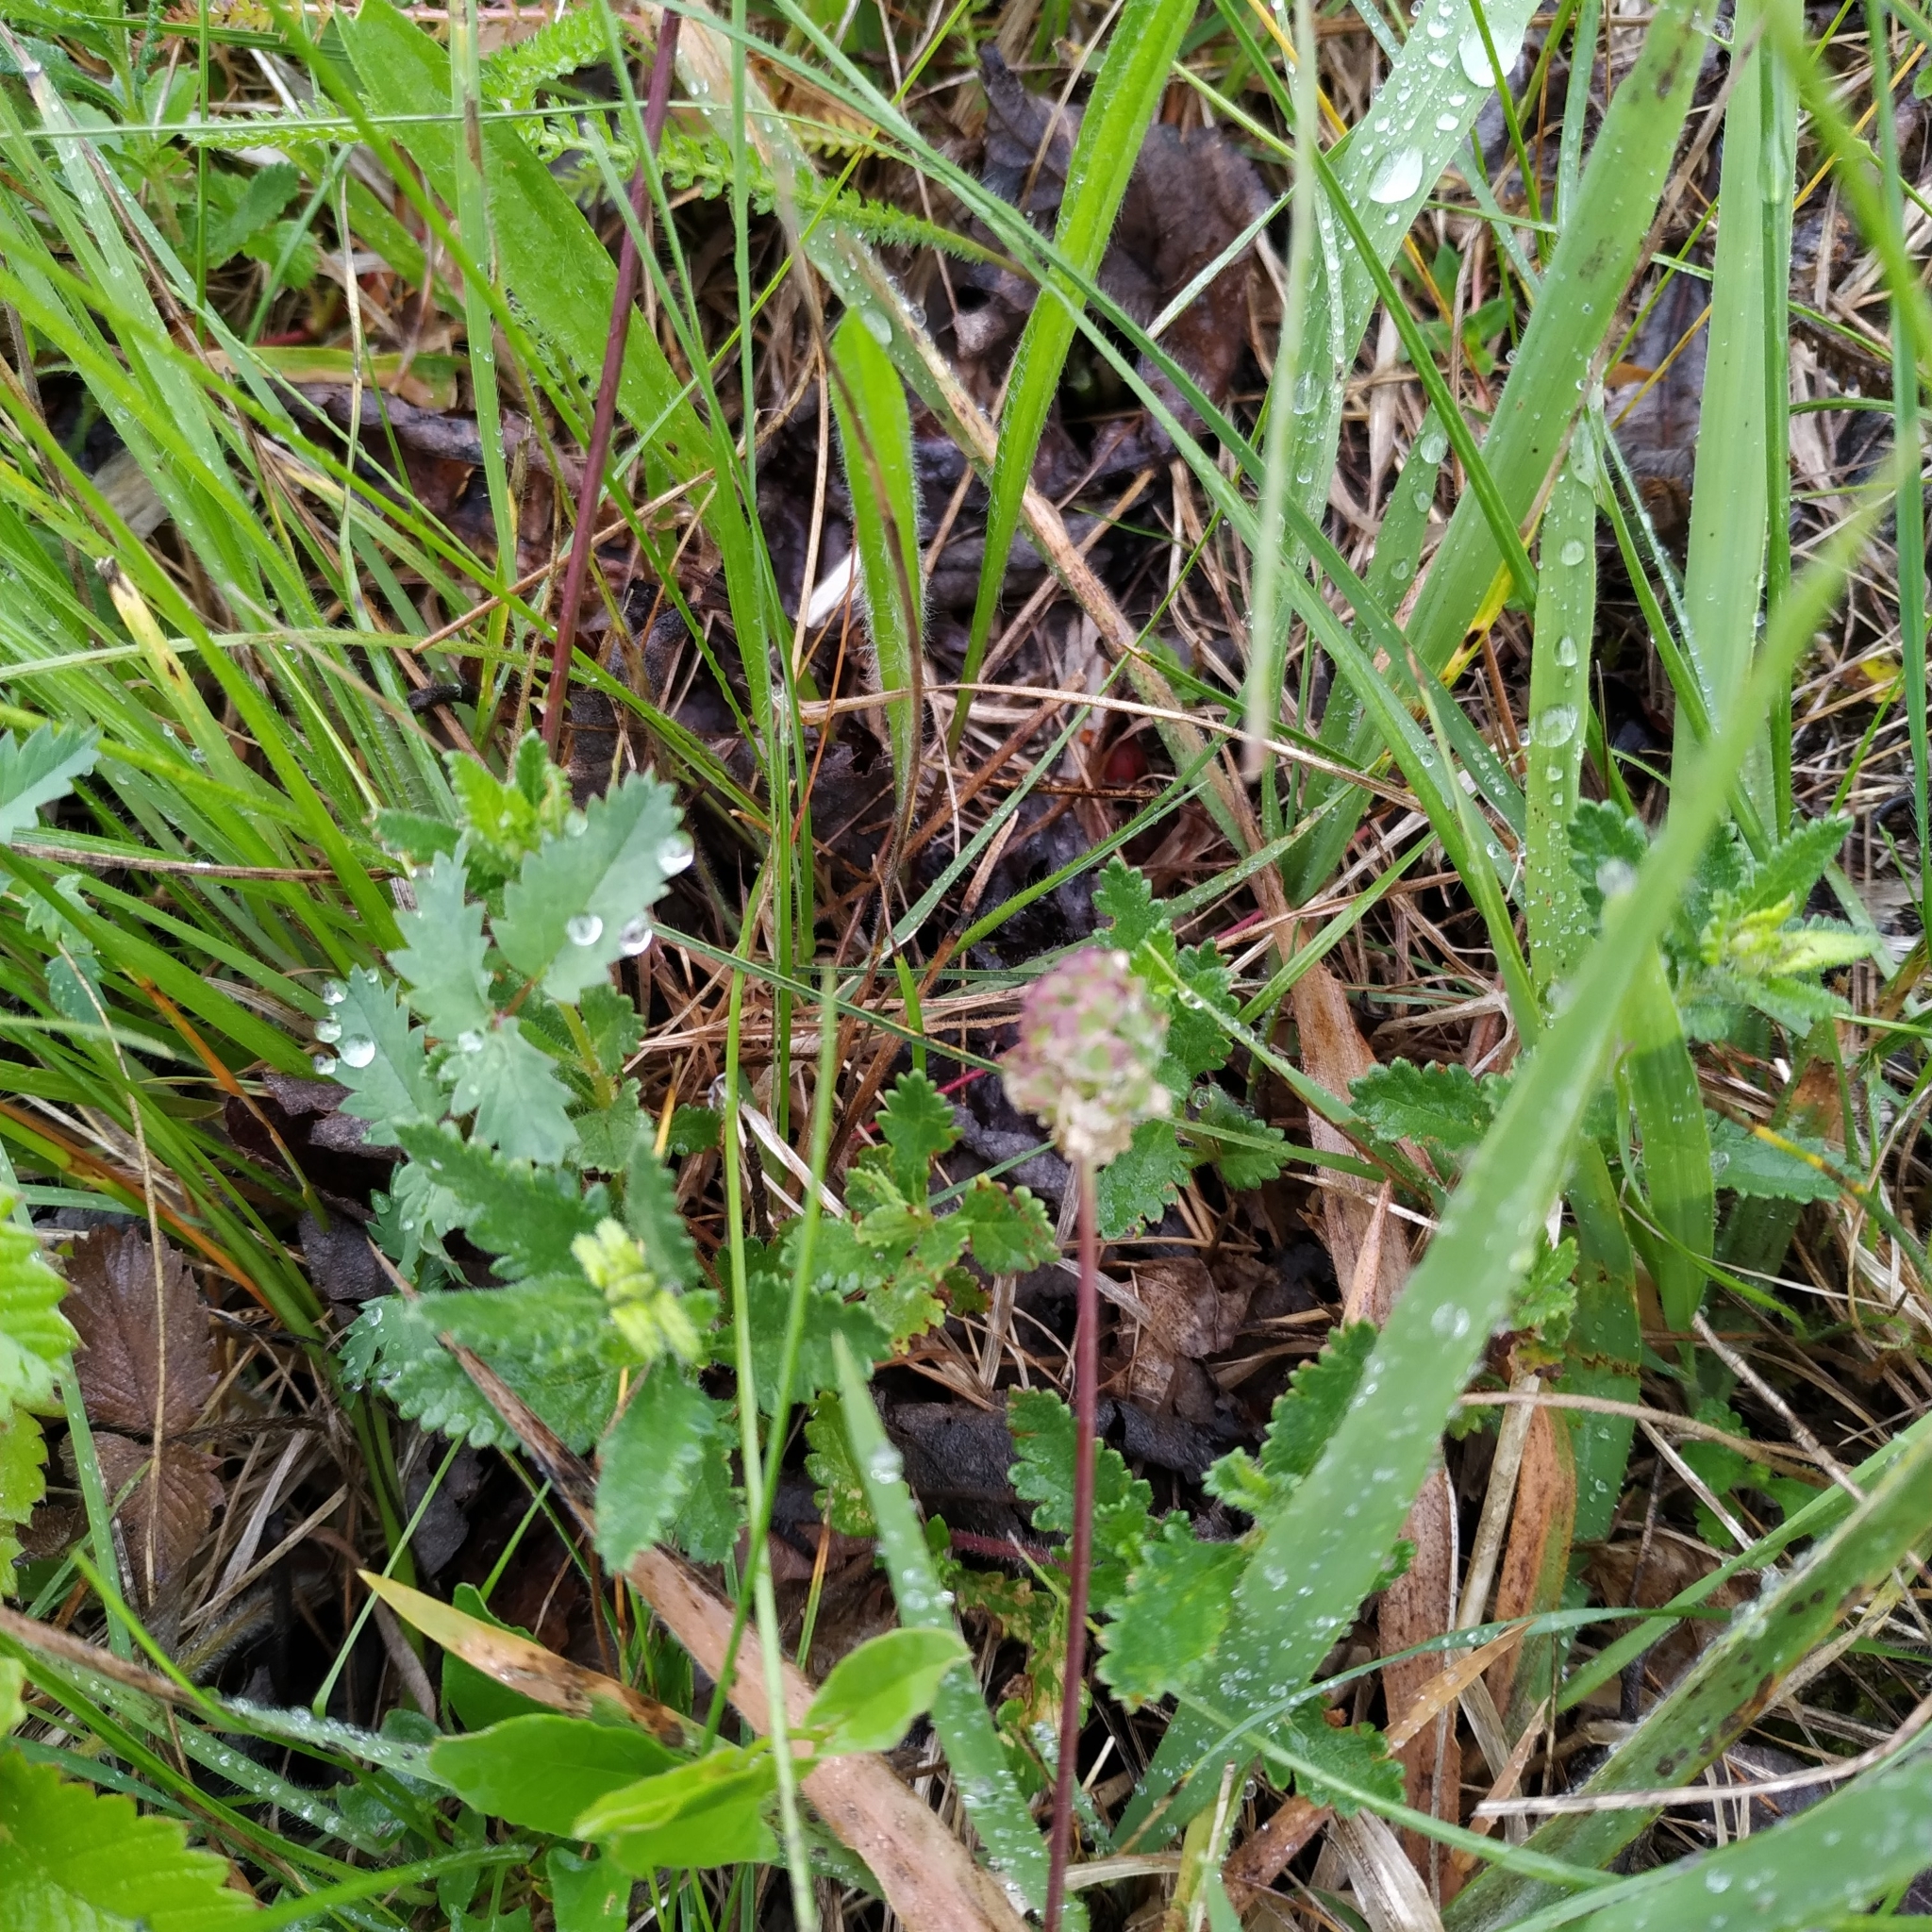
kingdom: Plantae
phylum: Tracheophyta
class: Magnoliopsida
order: Rosales
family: Rosaceae
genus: Poterium
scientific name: Poterium sanguisorba
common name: Salad burnet
